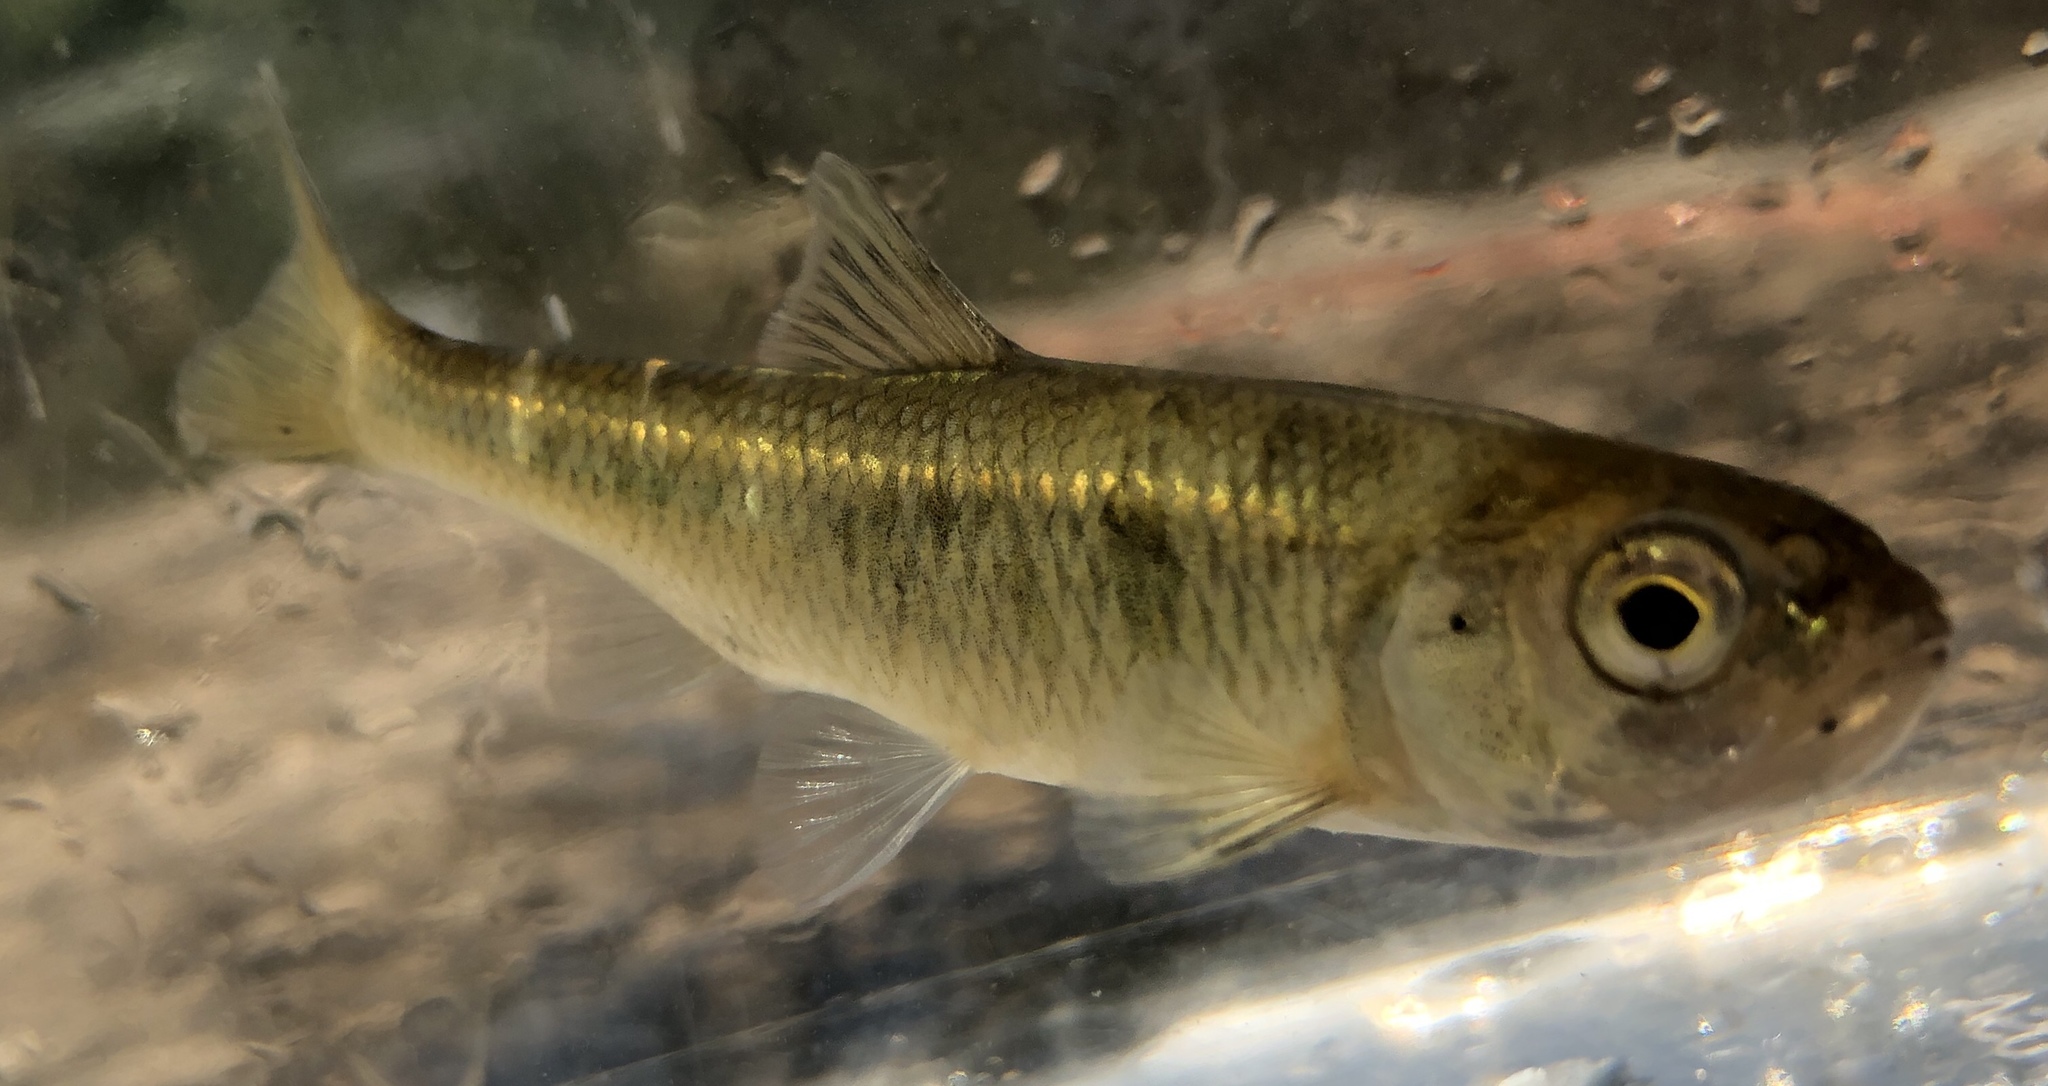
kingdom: Animalia
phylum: Chordata
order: Cypriniformes
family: Cyprinidae
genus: Luxilus
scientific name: Luxilus cornutus
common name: Common shiner
